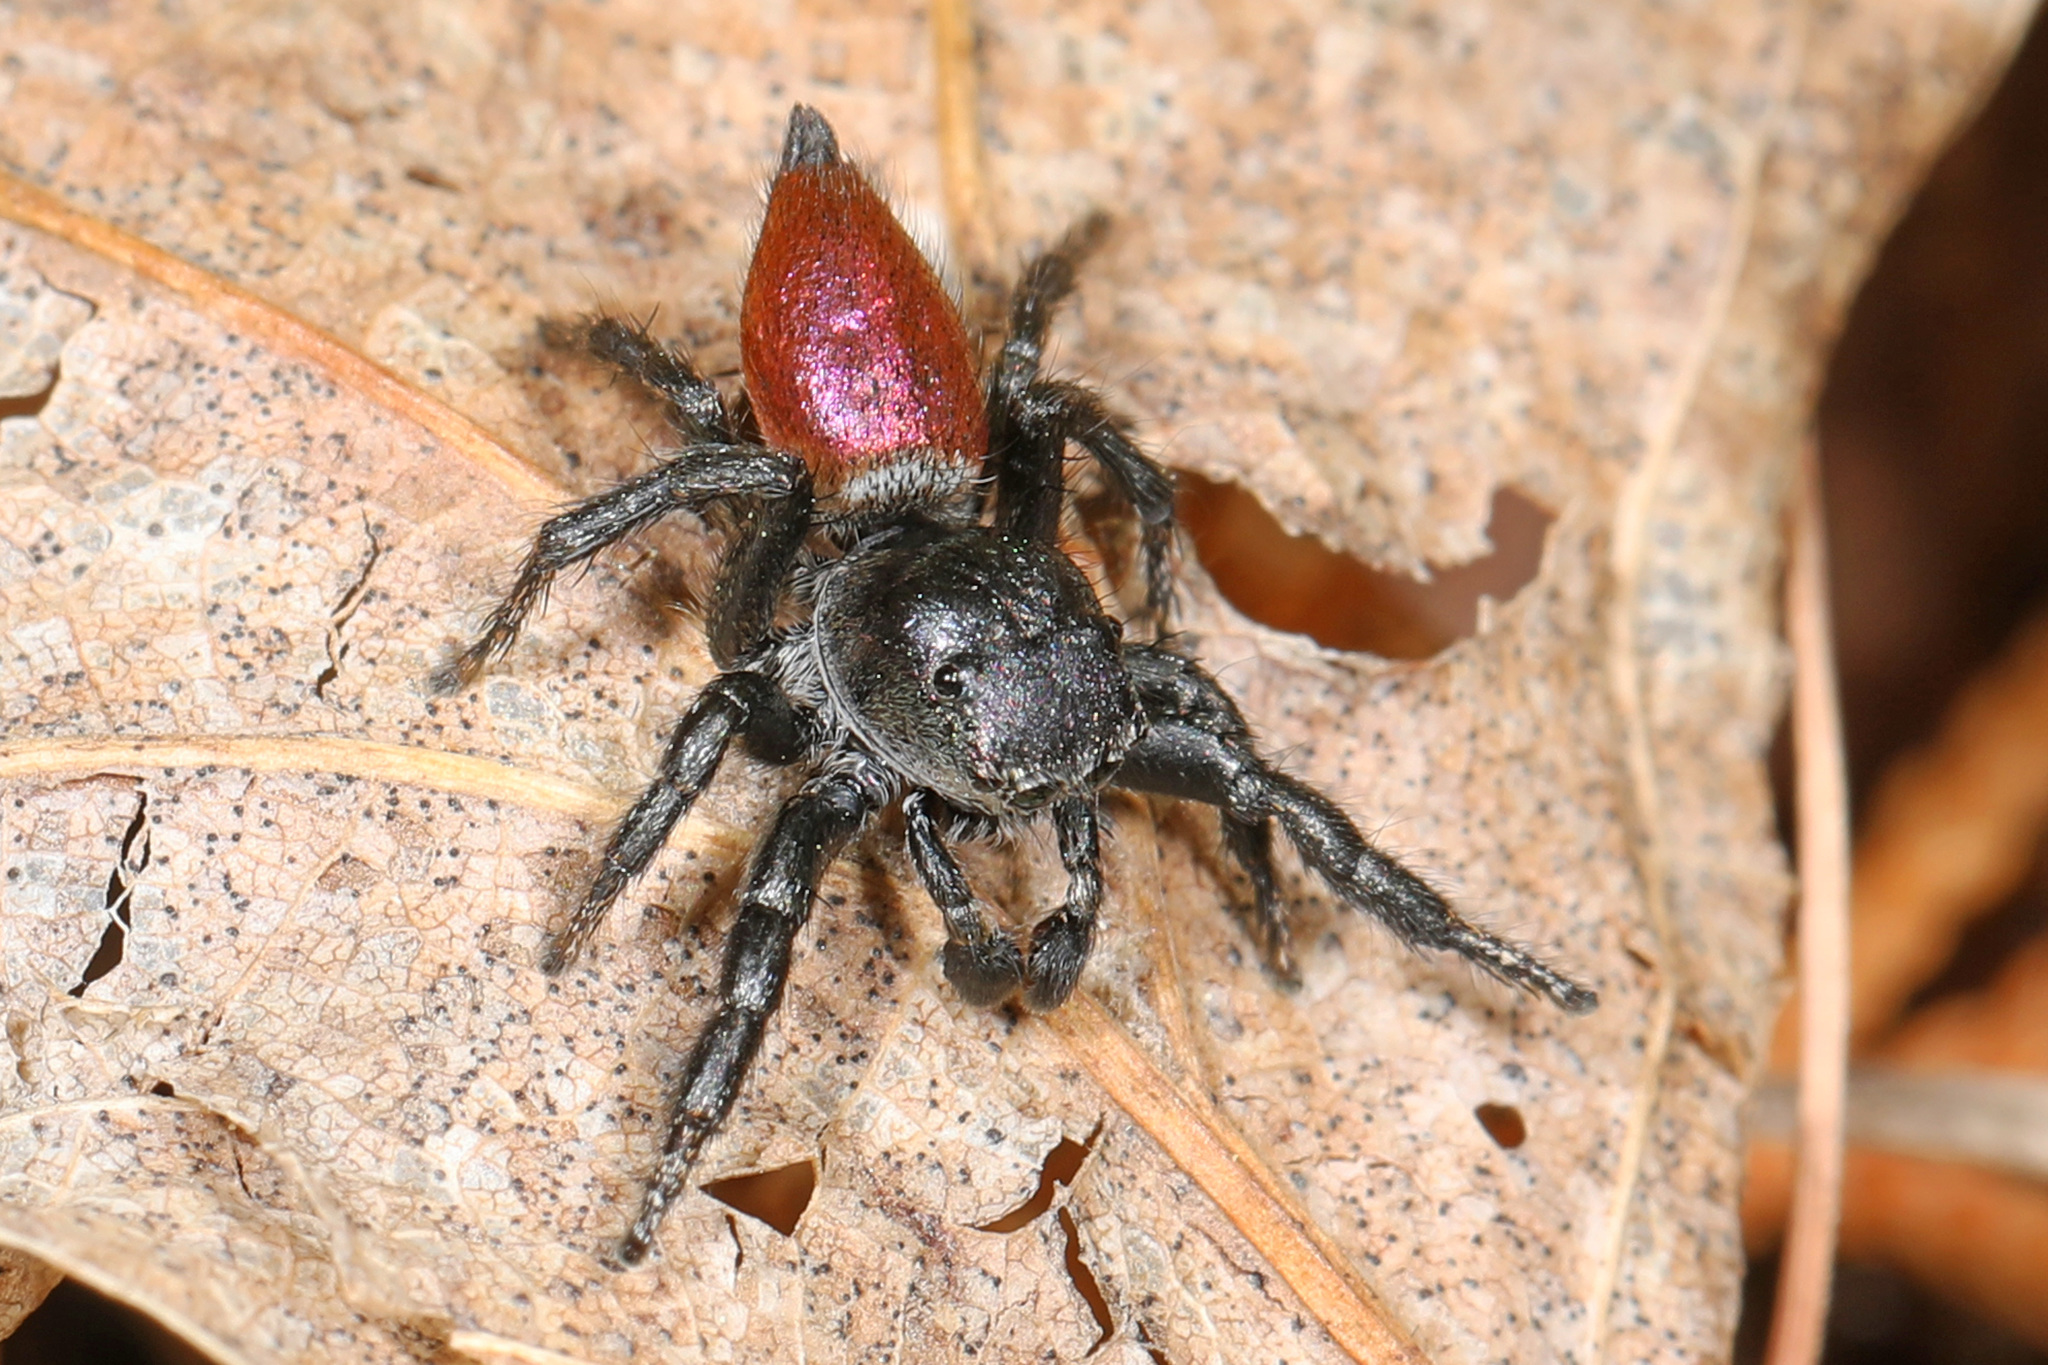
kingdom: Animalia
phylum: Arthropoda
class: Arachnida
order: Araneae
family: Salticidae
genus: Habronattus
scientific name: Habronattus decorus
